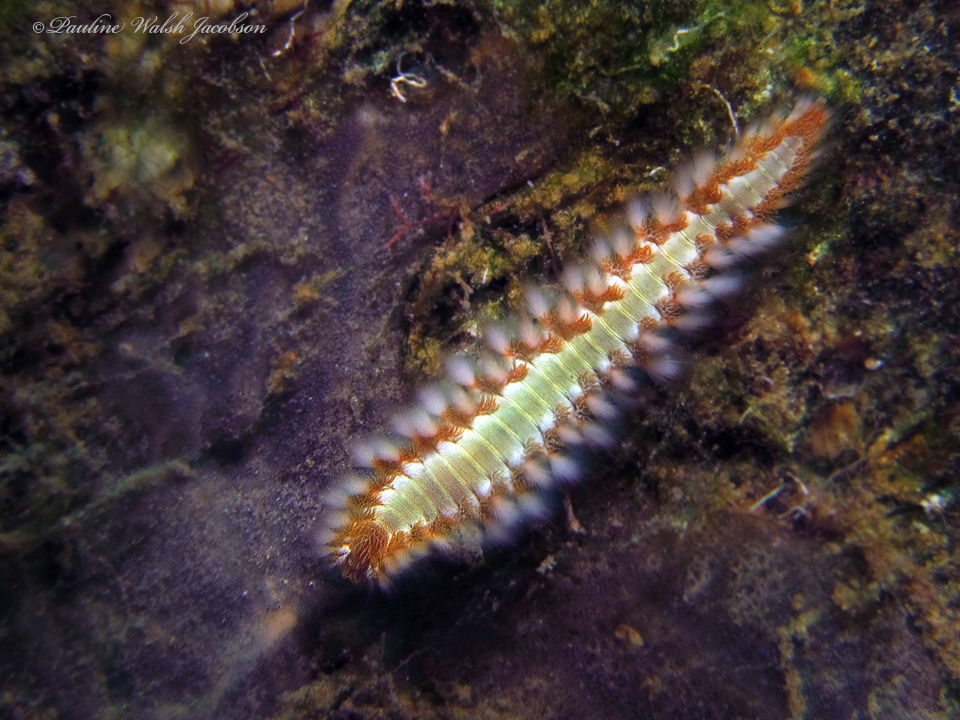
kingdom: Animalia
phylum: Annelida
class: Polychaeta
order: Amphinomida
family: Amphinomidae
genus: Hermodice
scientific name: Hermodice carunculata
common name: Bearded fireworm
